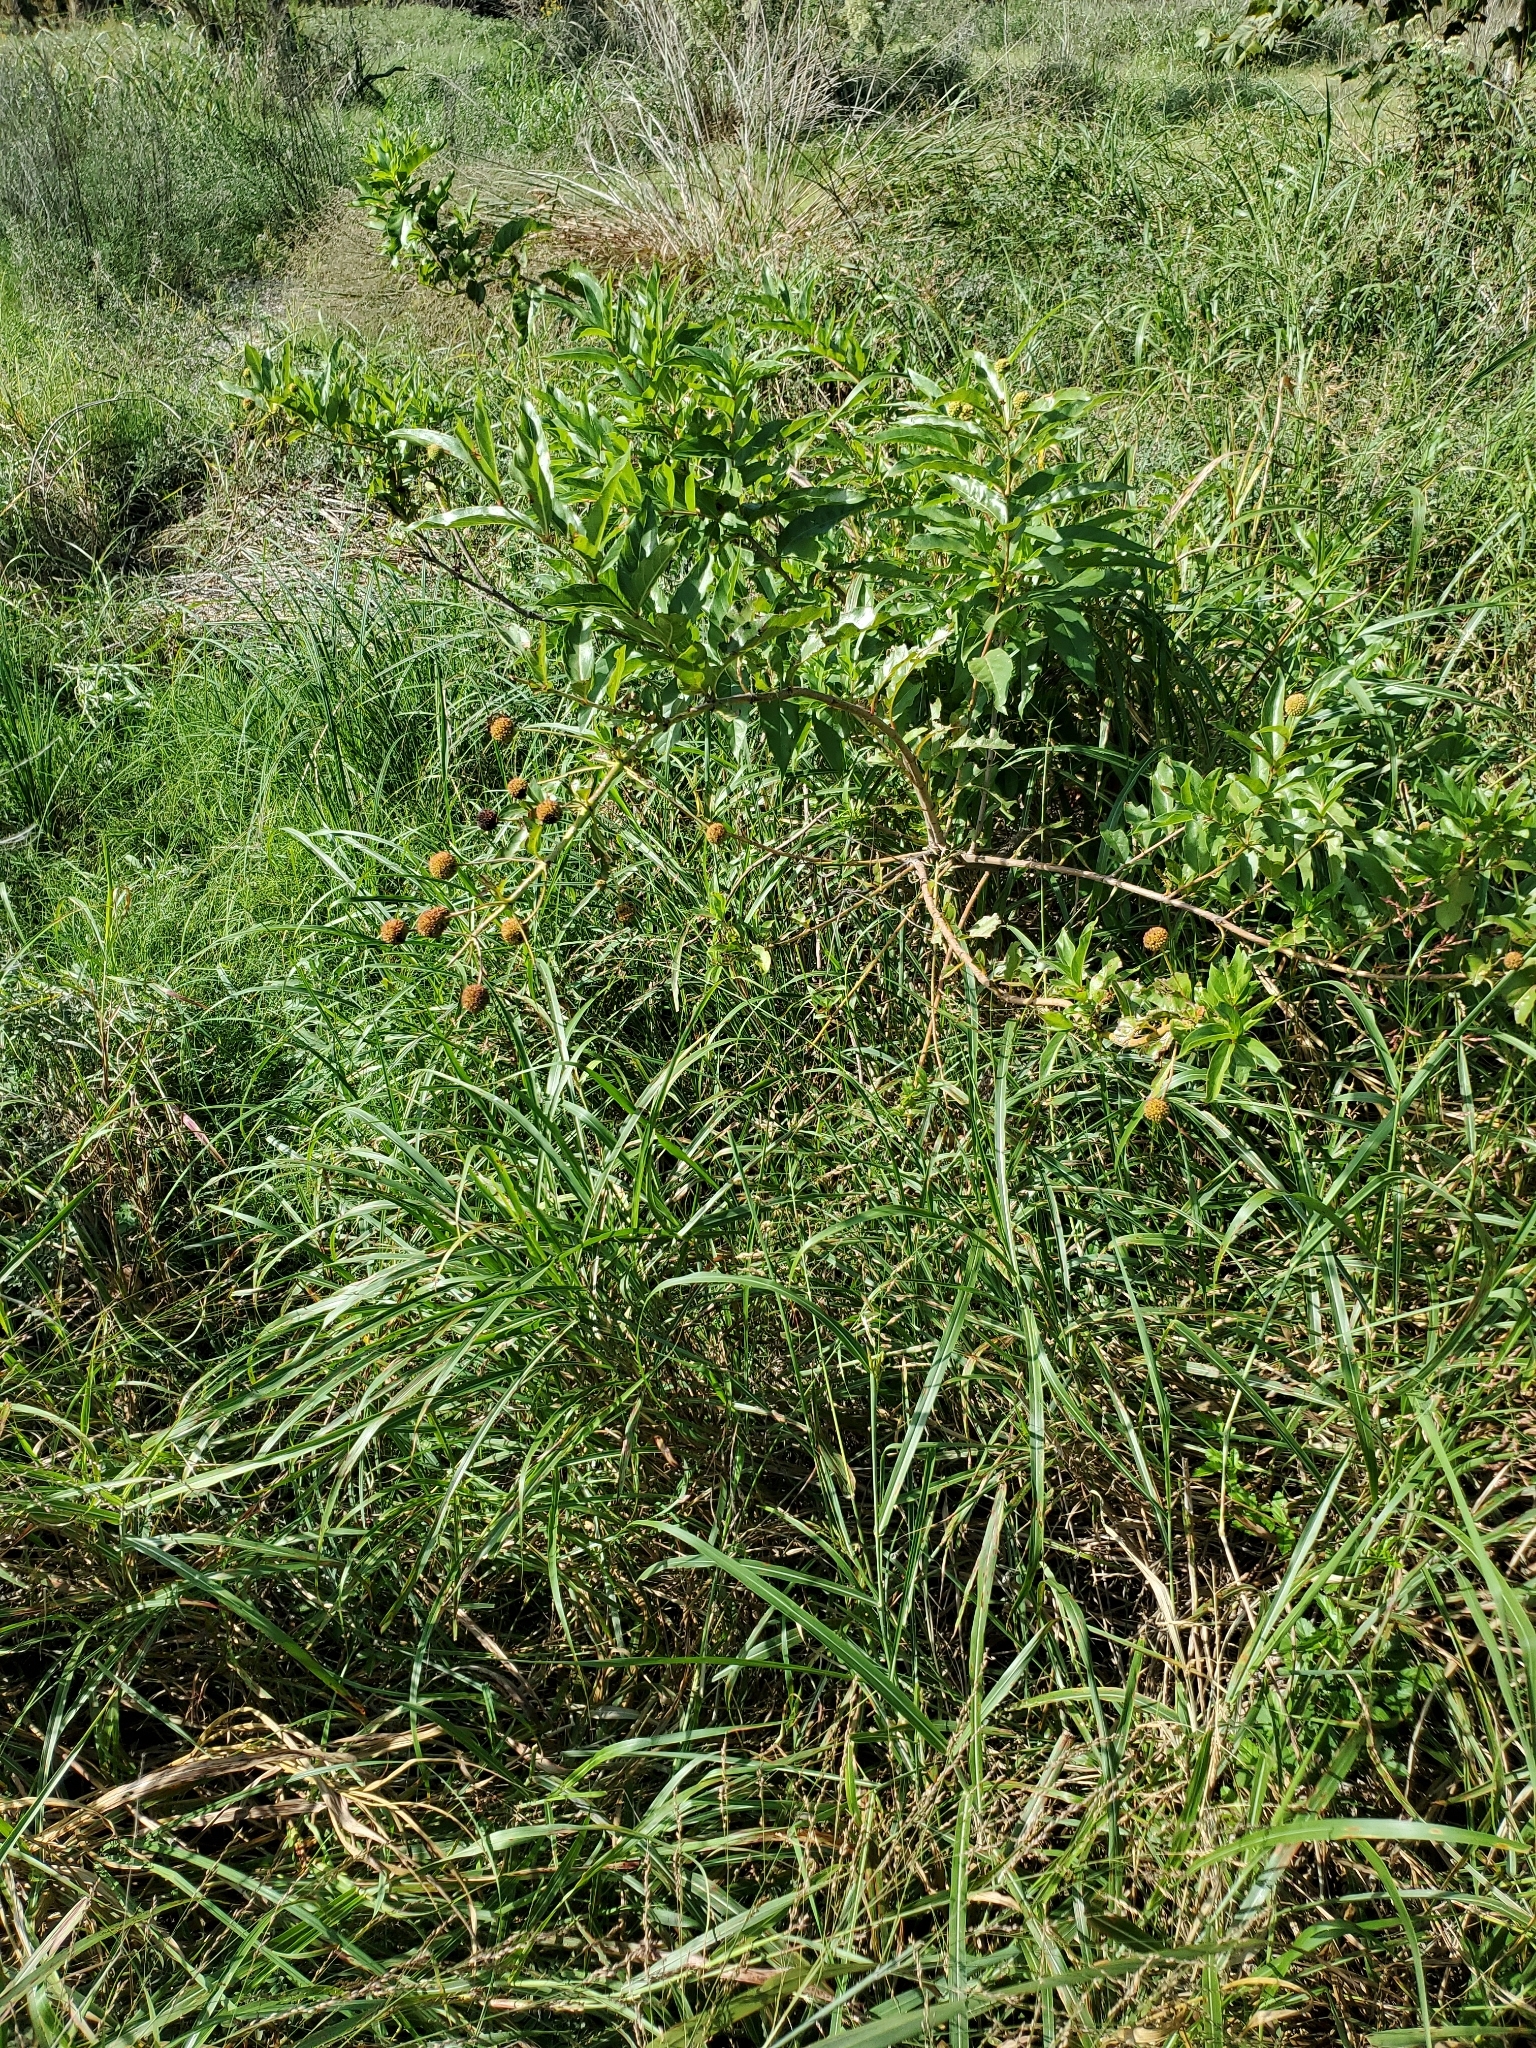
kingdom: Plantae
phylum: Tracheophyta
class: Magnoliopsida
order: Gentianales
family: Rubiaceae
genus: Cephalanthus
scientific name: Cephalanthus occidentalis
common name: Button-willow
